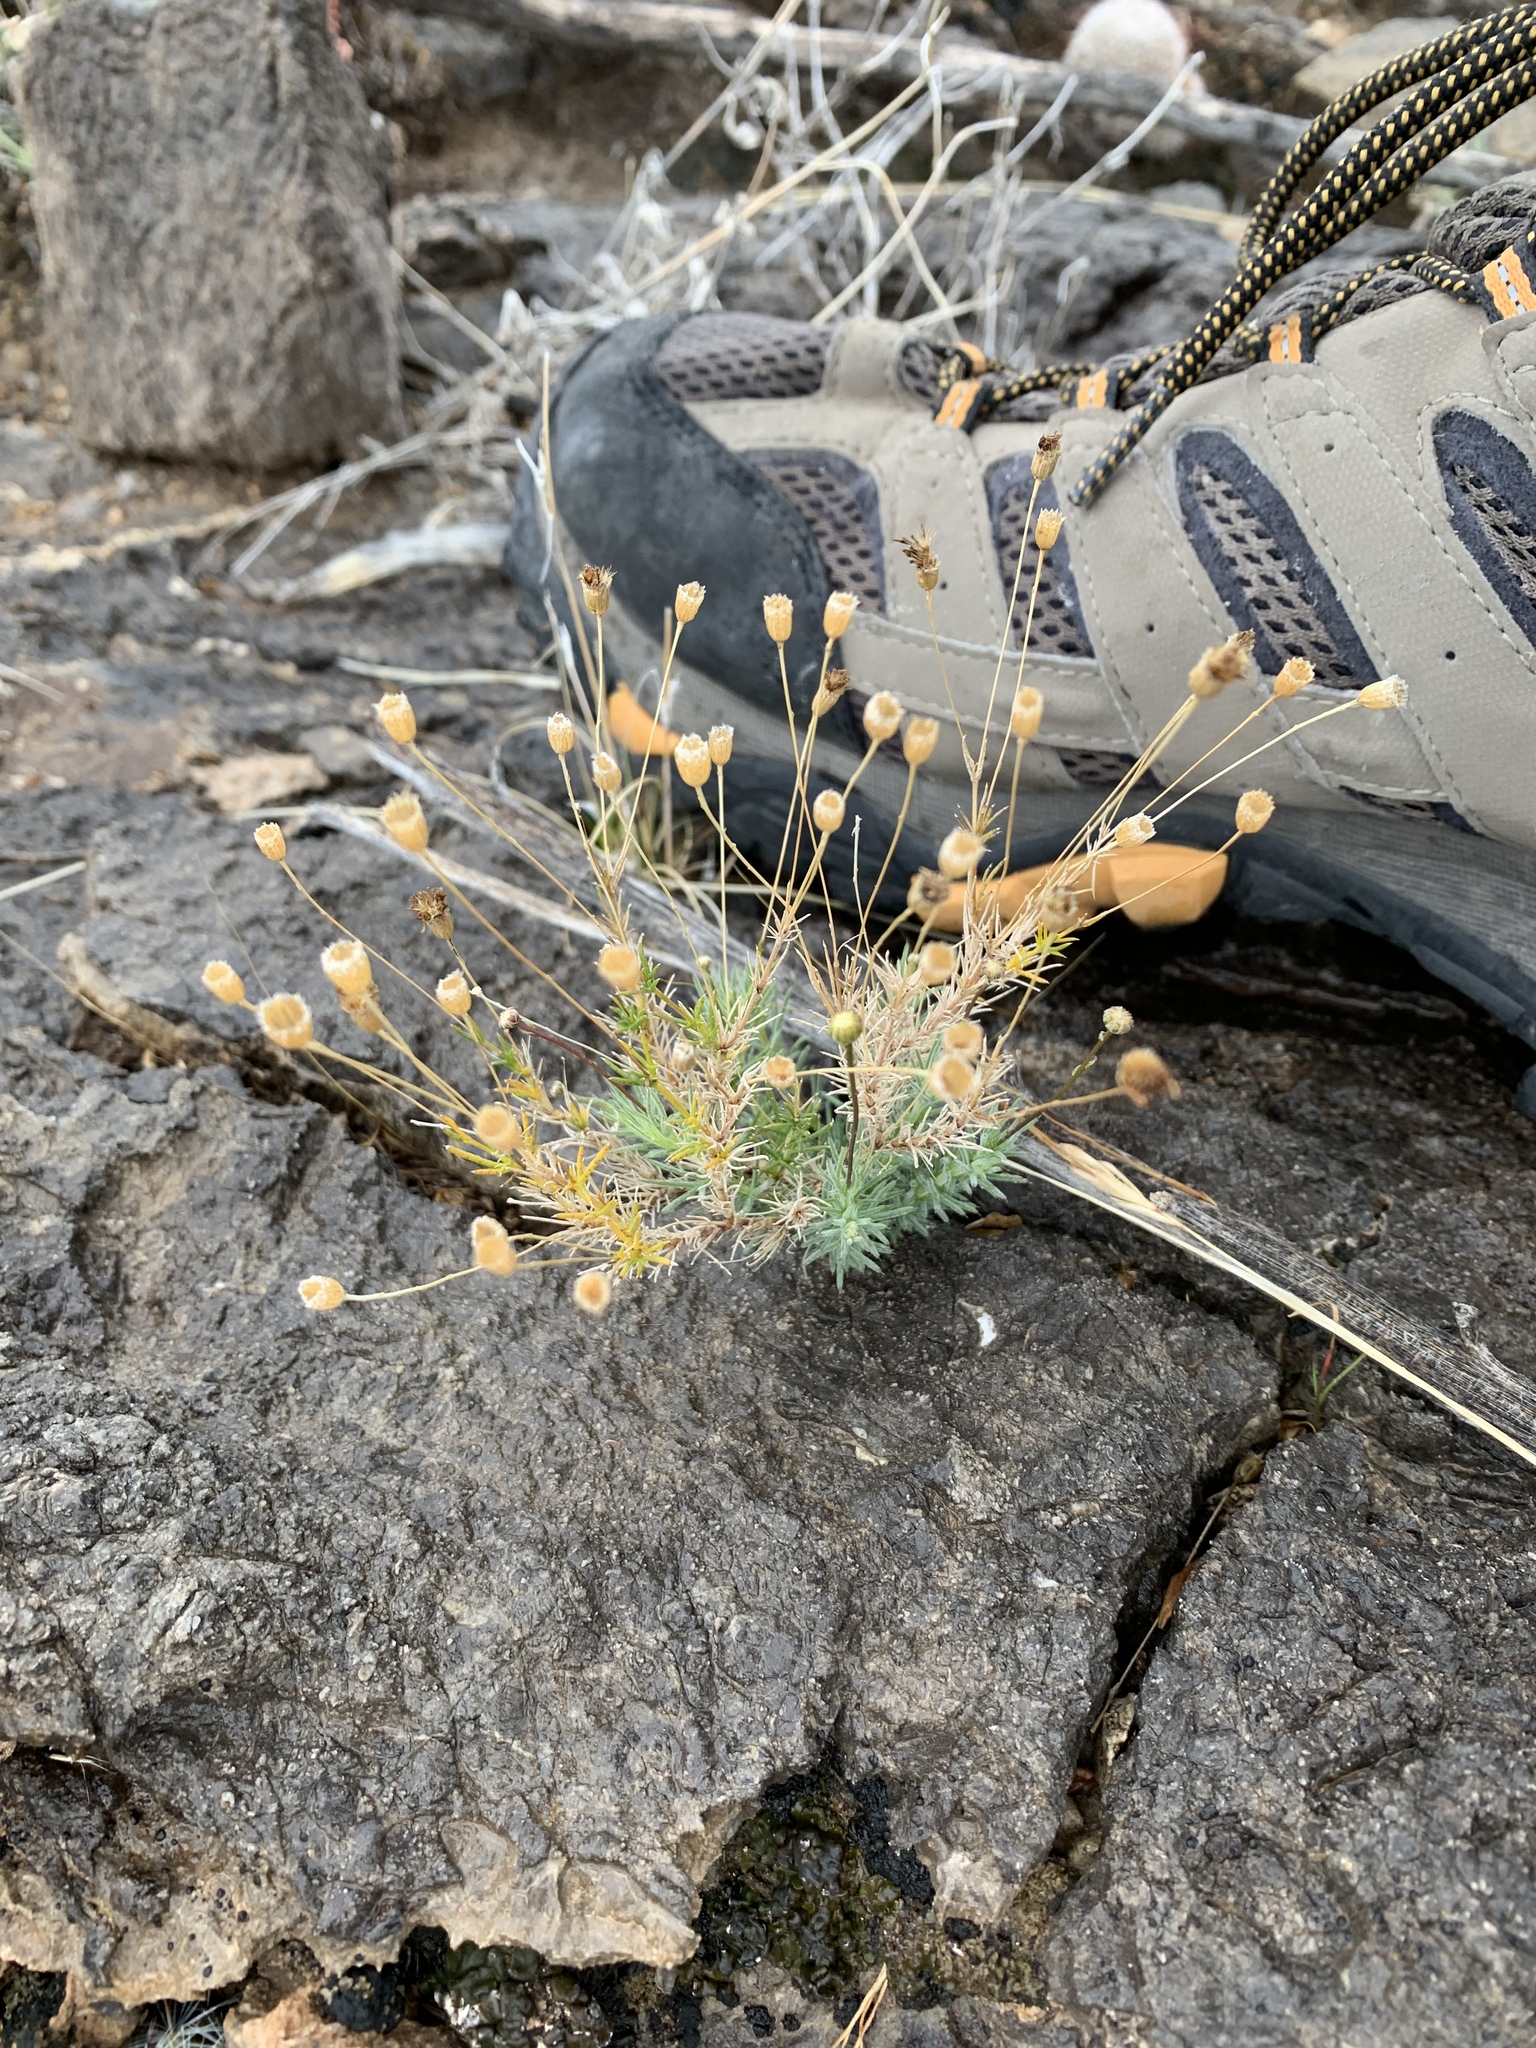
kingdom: Plantae
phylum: Tracheophyta
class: Magnoliopsida
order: Asterales
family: Asteraceae
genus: Thymophylla
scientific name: Thymophylla pentachaeta
